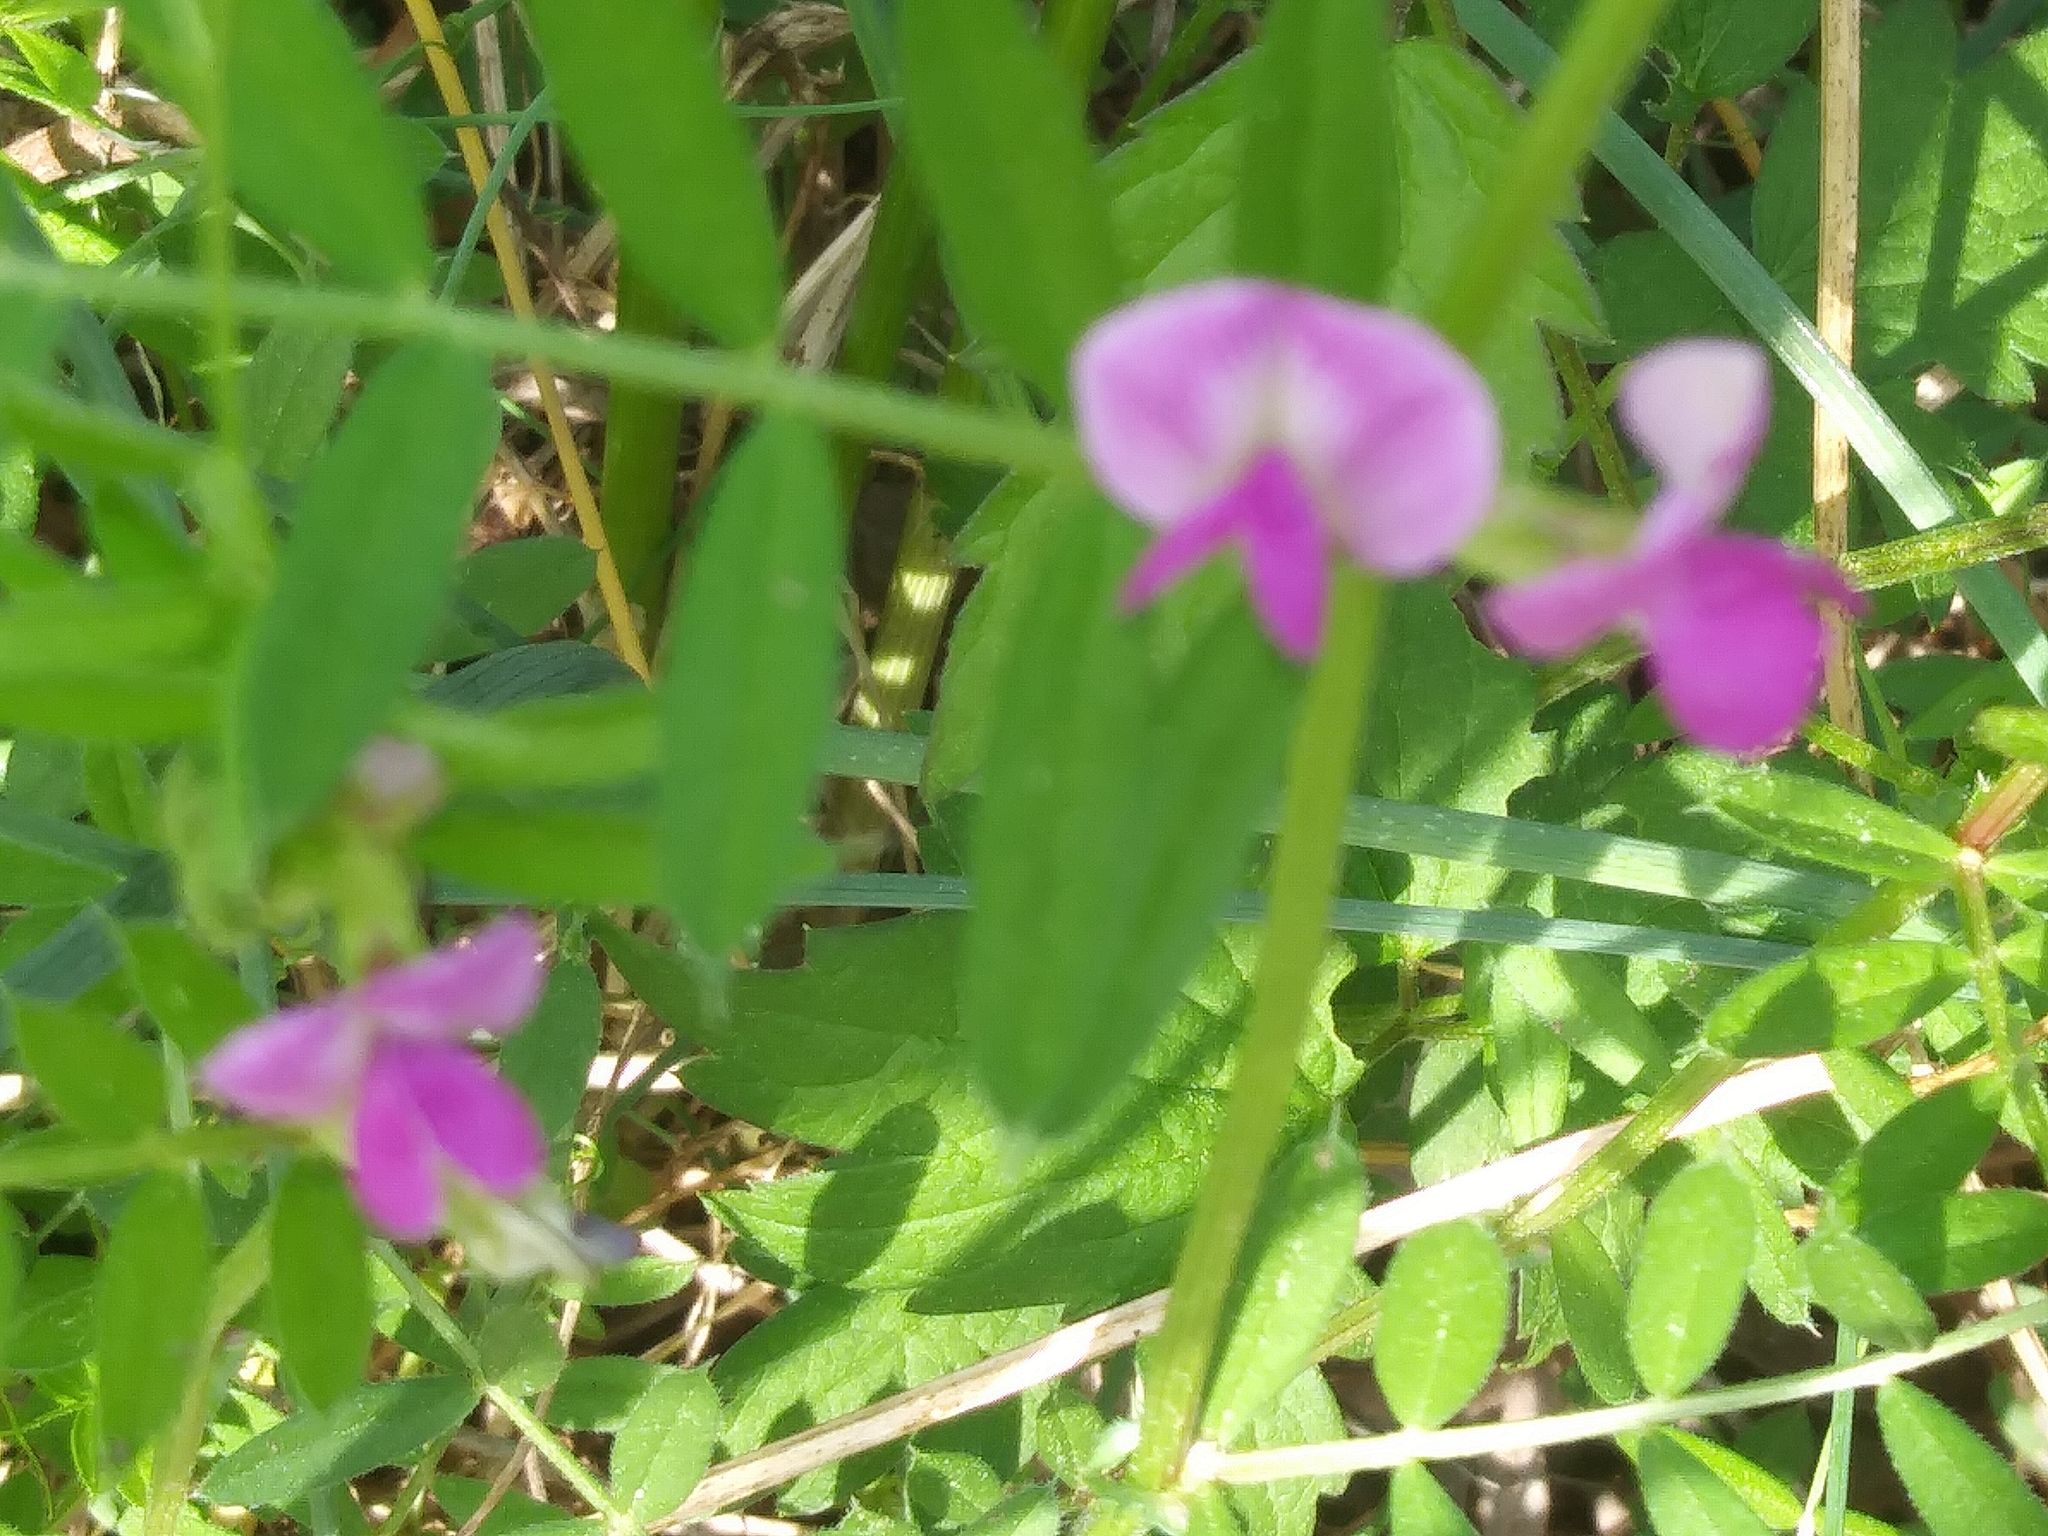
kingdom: Plantae
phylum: Tracheophyta
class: Magnoliopsida
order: Fabales
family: Fabaceae
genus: Vicia
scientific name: Vicia sativa
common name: Garden vetch
